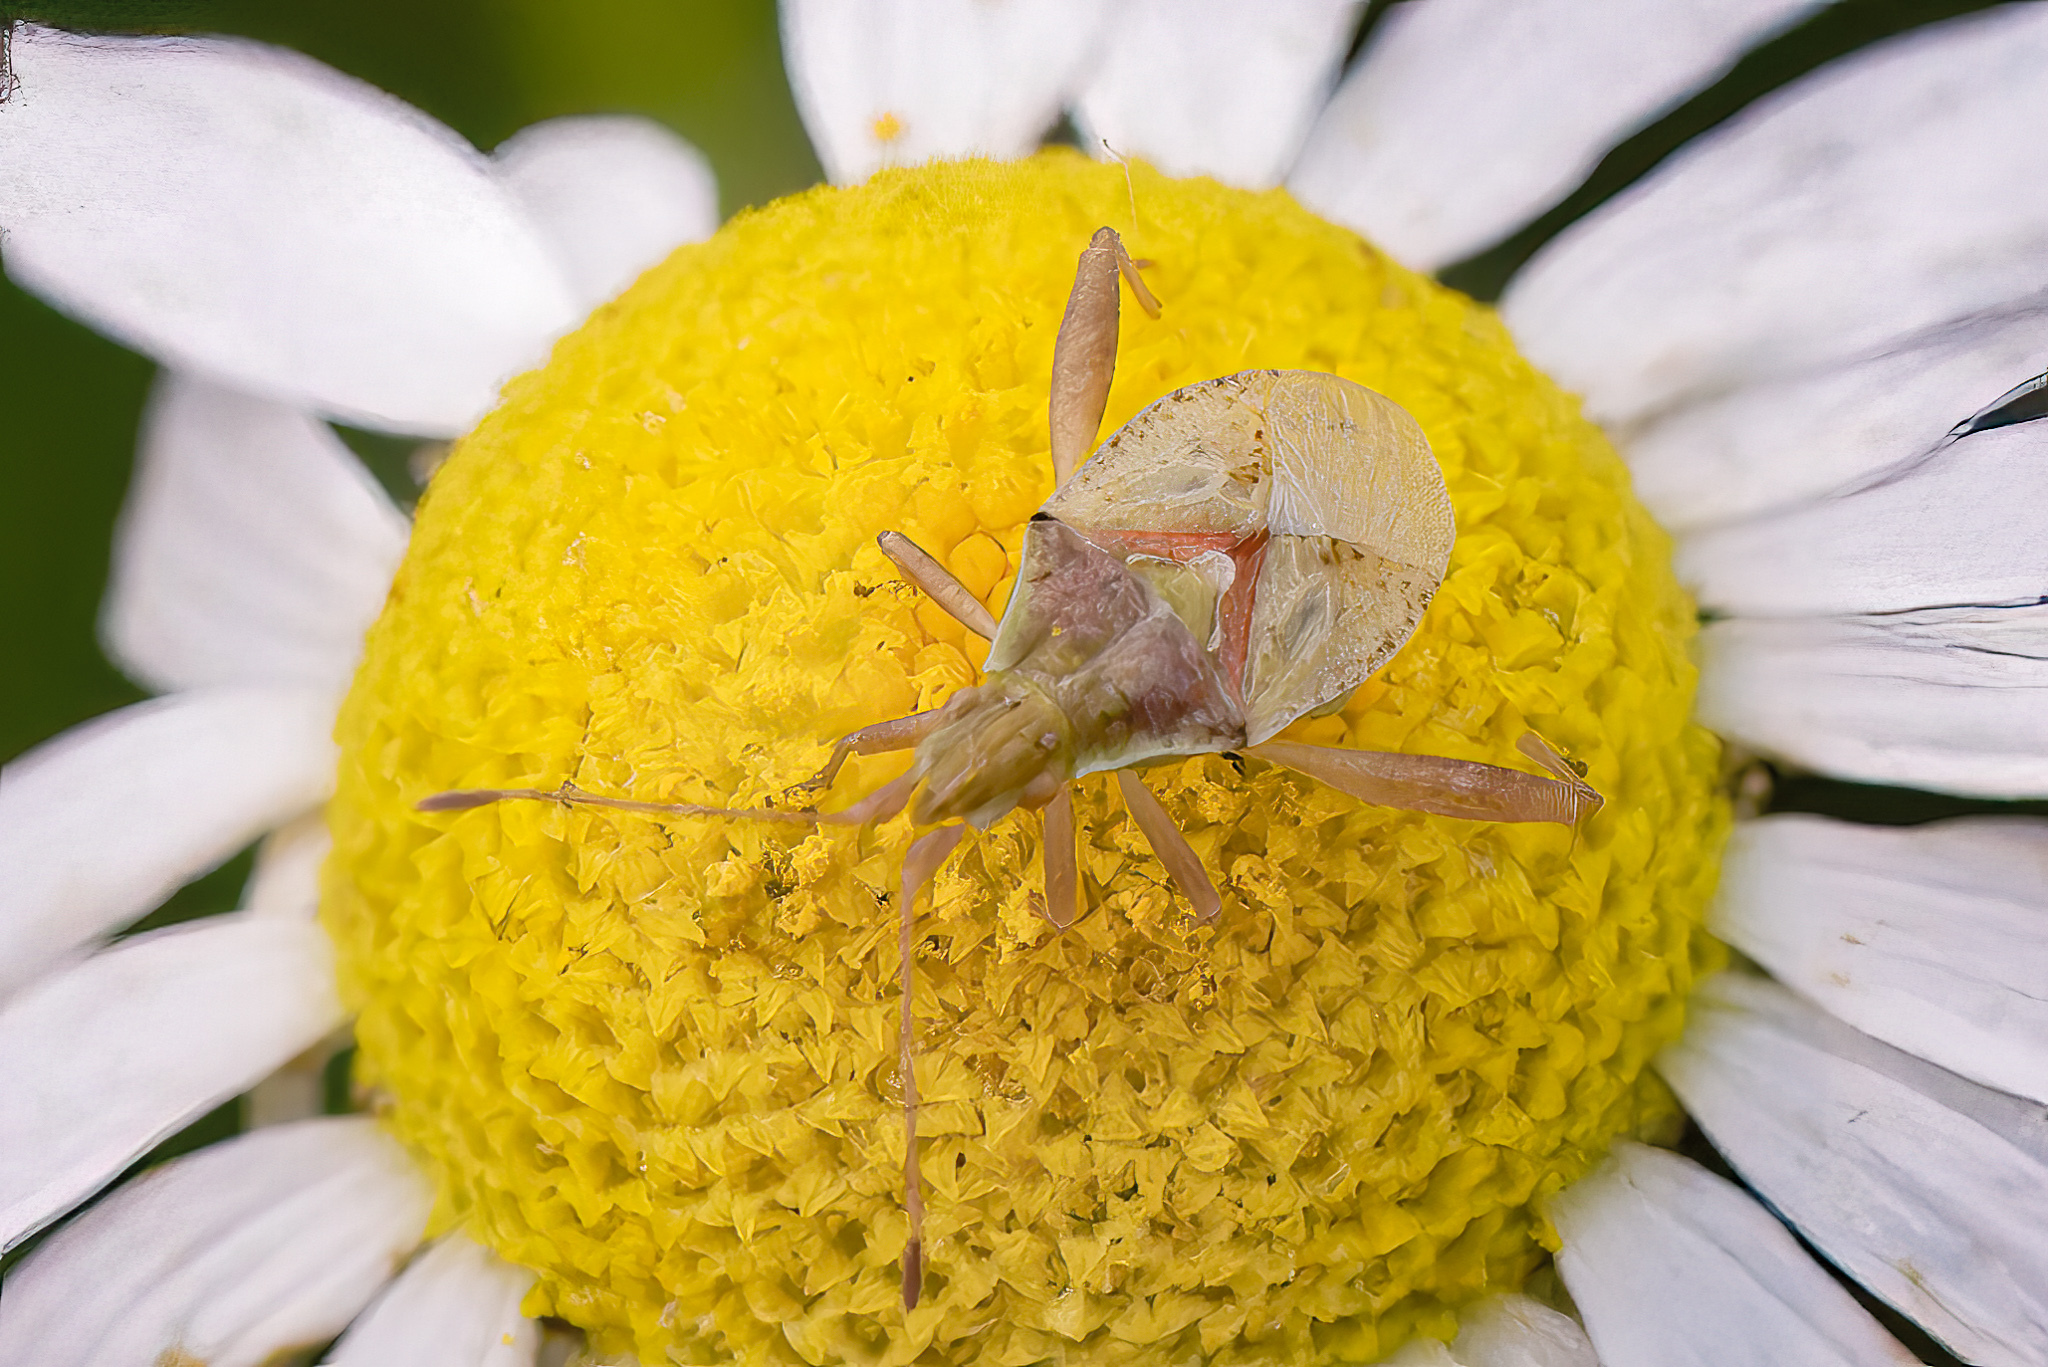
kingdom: Animalia
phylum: Arthropoda
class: Insecta
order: Hemiptera
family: Rhopalidae
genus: Harmostes
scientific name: Harmostes reflexulus
